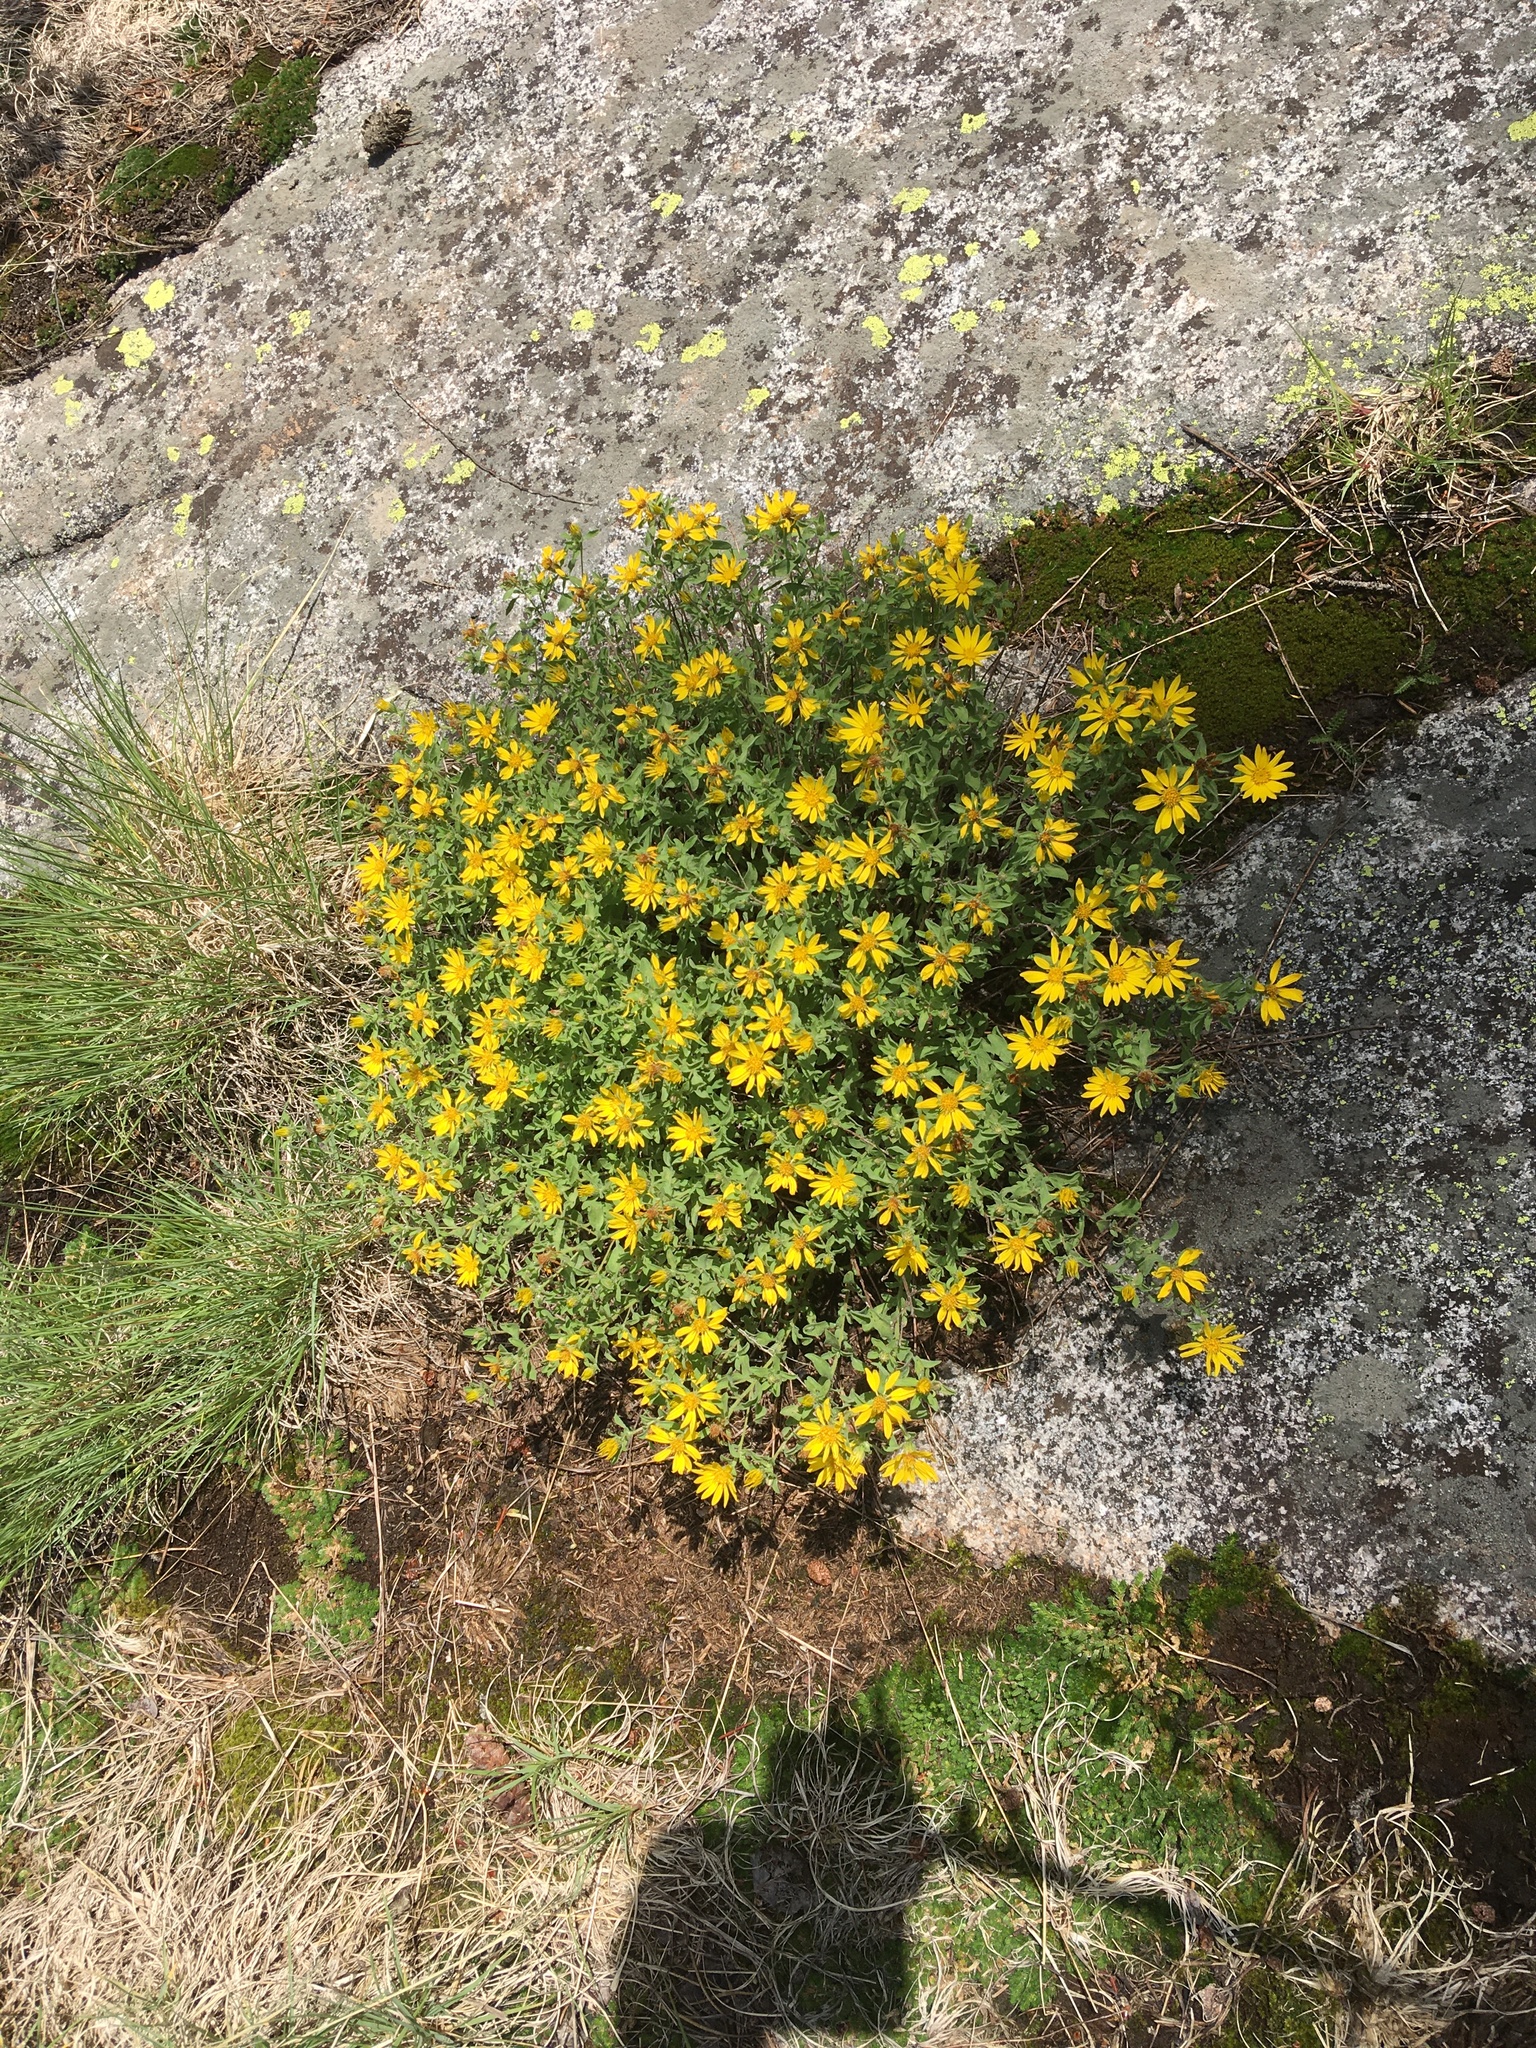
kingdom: Plantae
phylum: Tracheophyta
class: Magnoliopsida
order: Asterales
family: Asteraceae
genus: Heterotheca
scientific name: Heterotheca villosa
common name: Hairy false goldenaster
